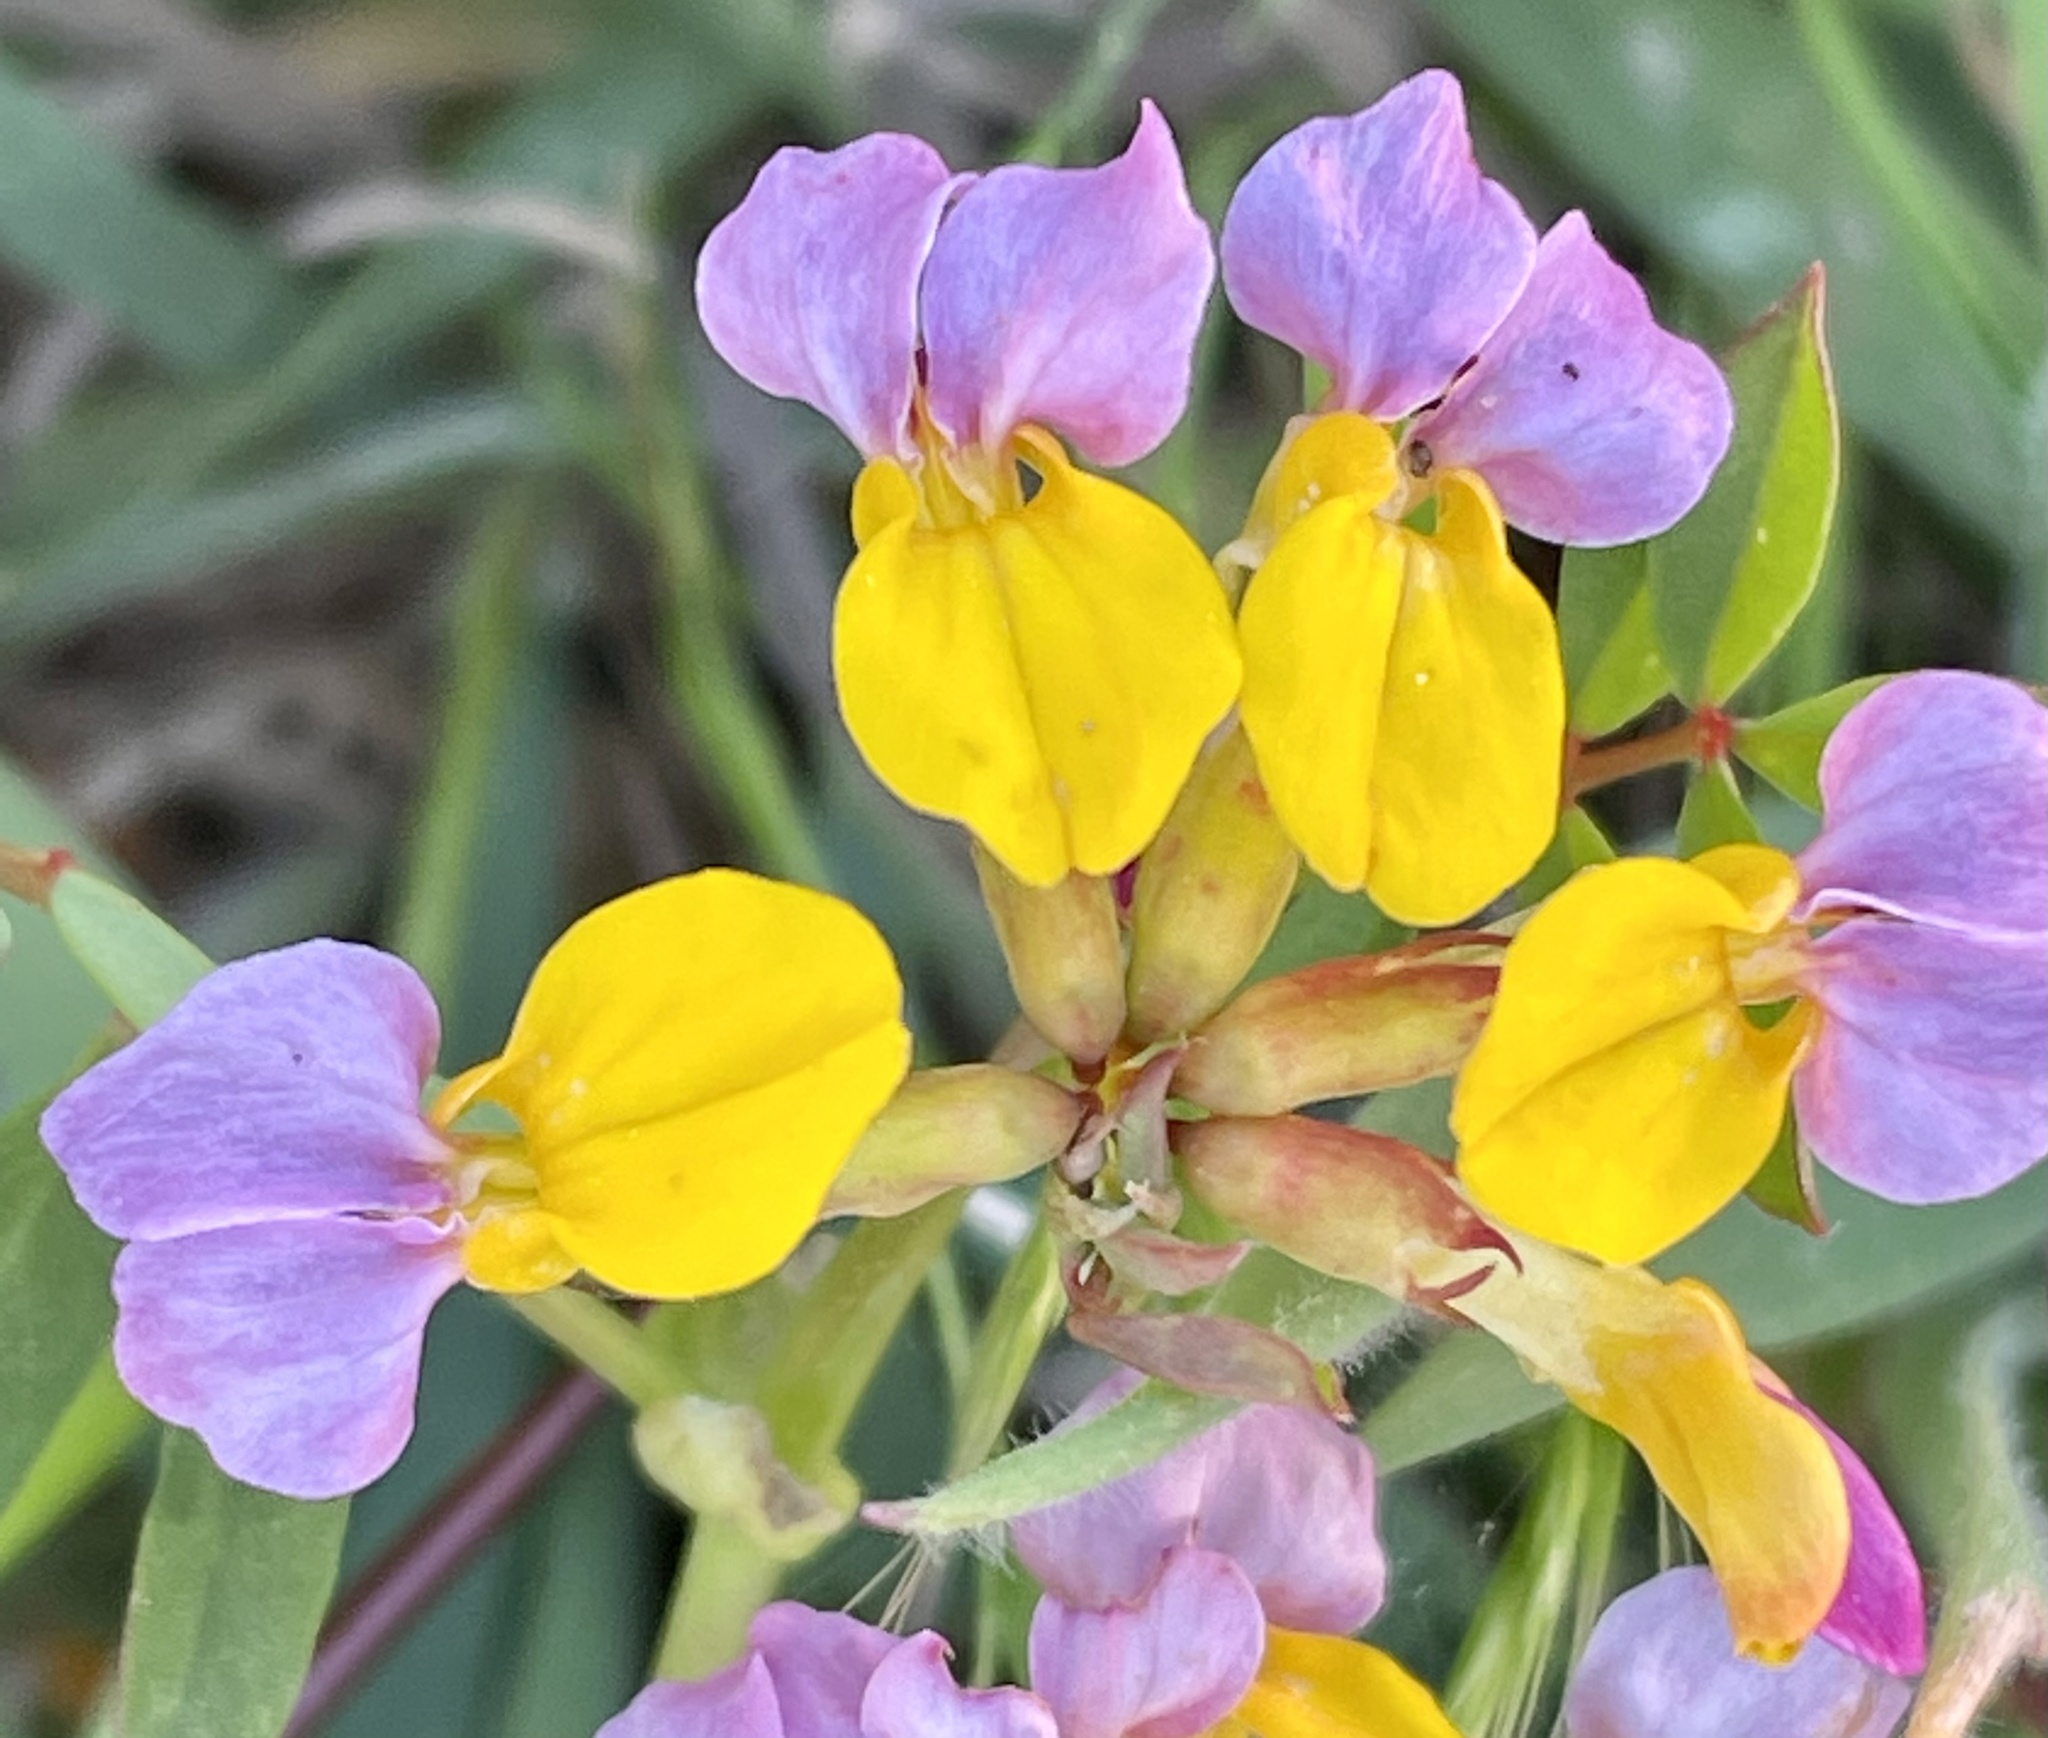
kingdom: Plantae
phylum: Tracheophyta
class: Magnoliopsida
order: Fabales
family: Fabaceae
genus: Hosackia
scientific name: Hosackia gracilis
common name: Seaside bird's-foot lotus
